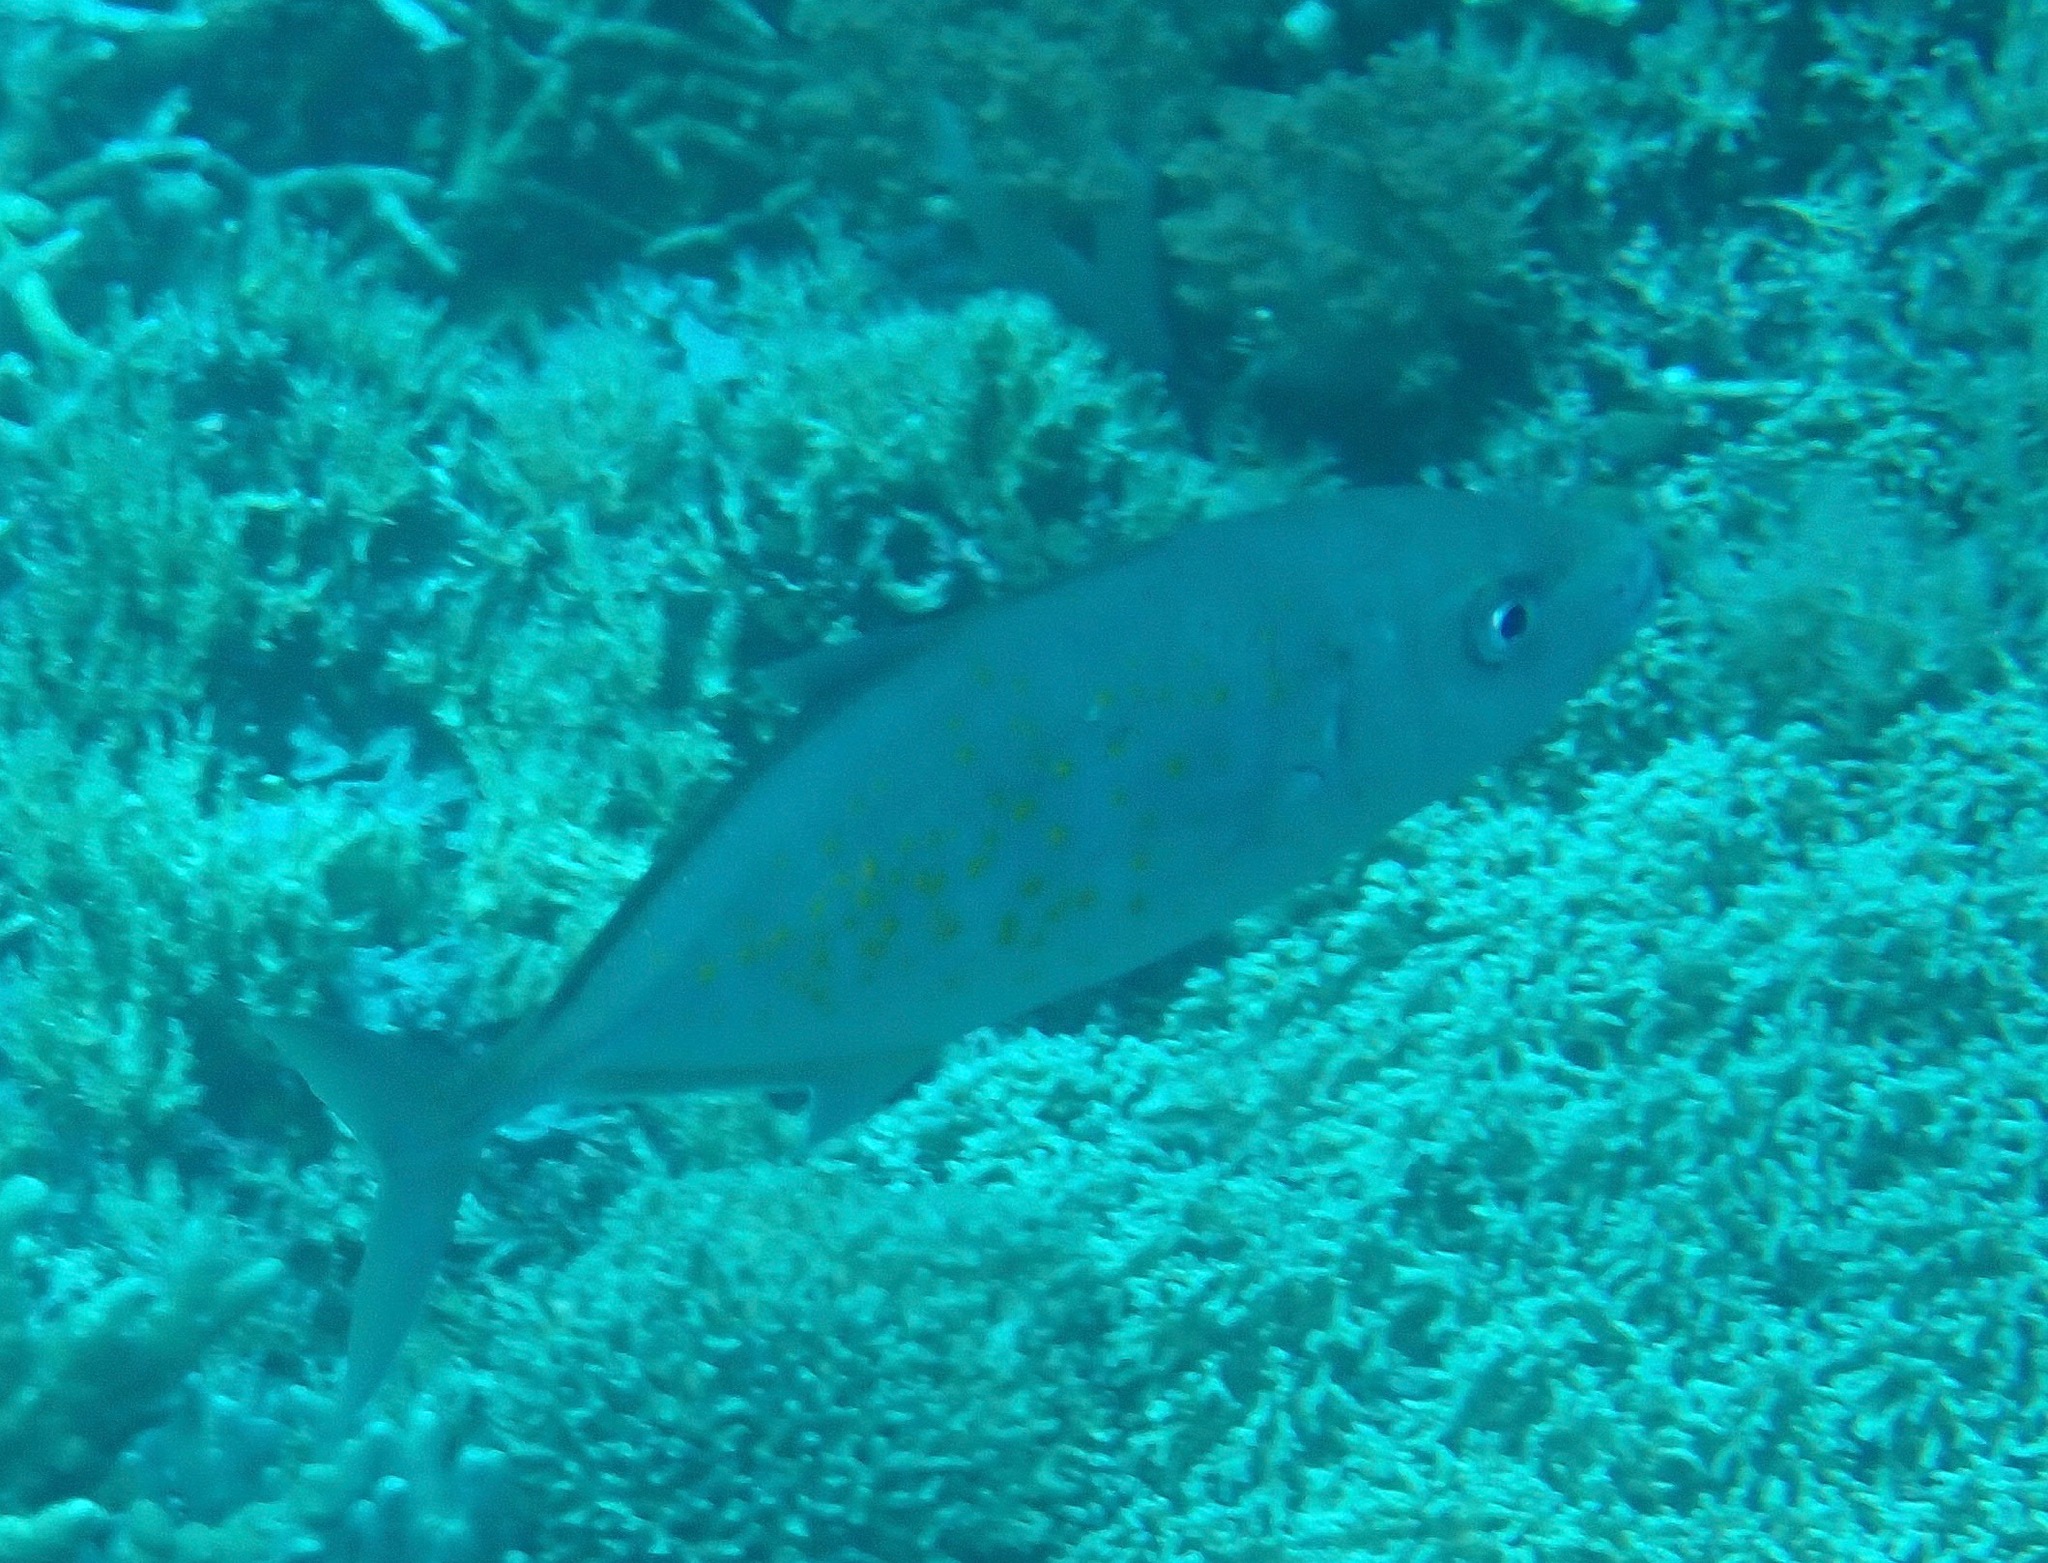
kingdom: Animalia
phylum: Chordata
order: Perciformes
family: Carangidae
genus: Flavocaranx
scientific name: Flavocaranx bajad
